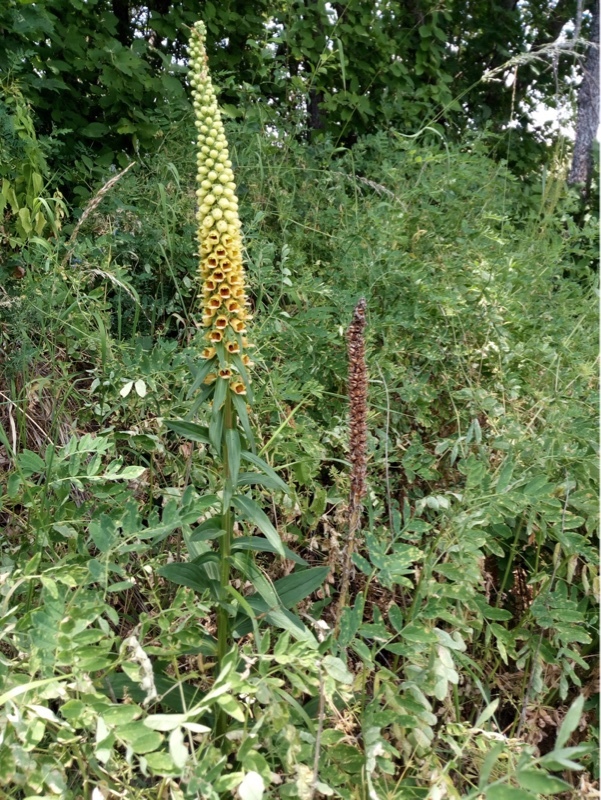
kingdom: Plantae
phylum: Tracheophyta
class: Magnoliopsida
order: Lamiales
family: Plantaginaceae
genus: Digitalis
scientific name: Digitalis ferruginea
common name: Rusty foxglove
